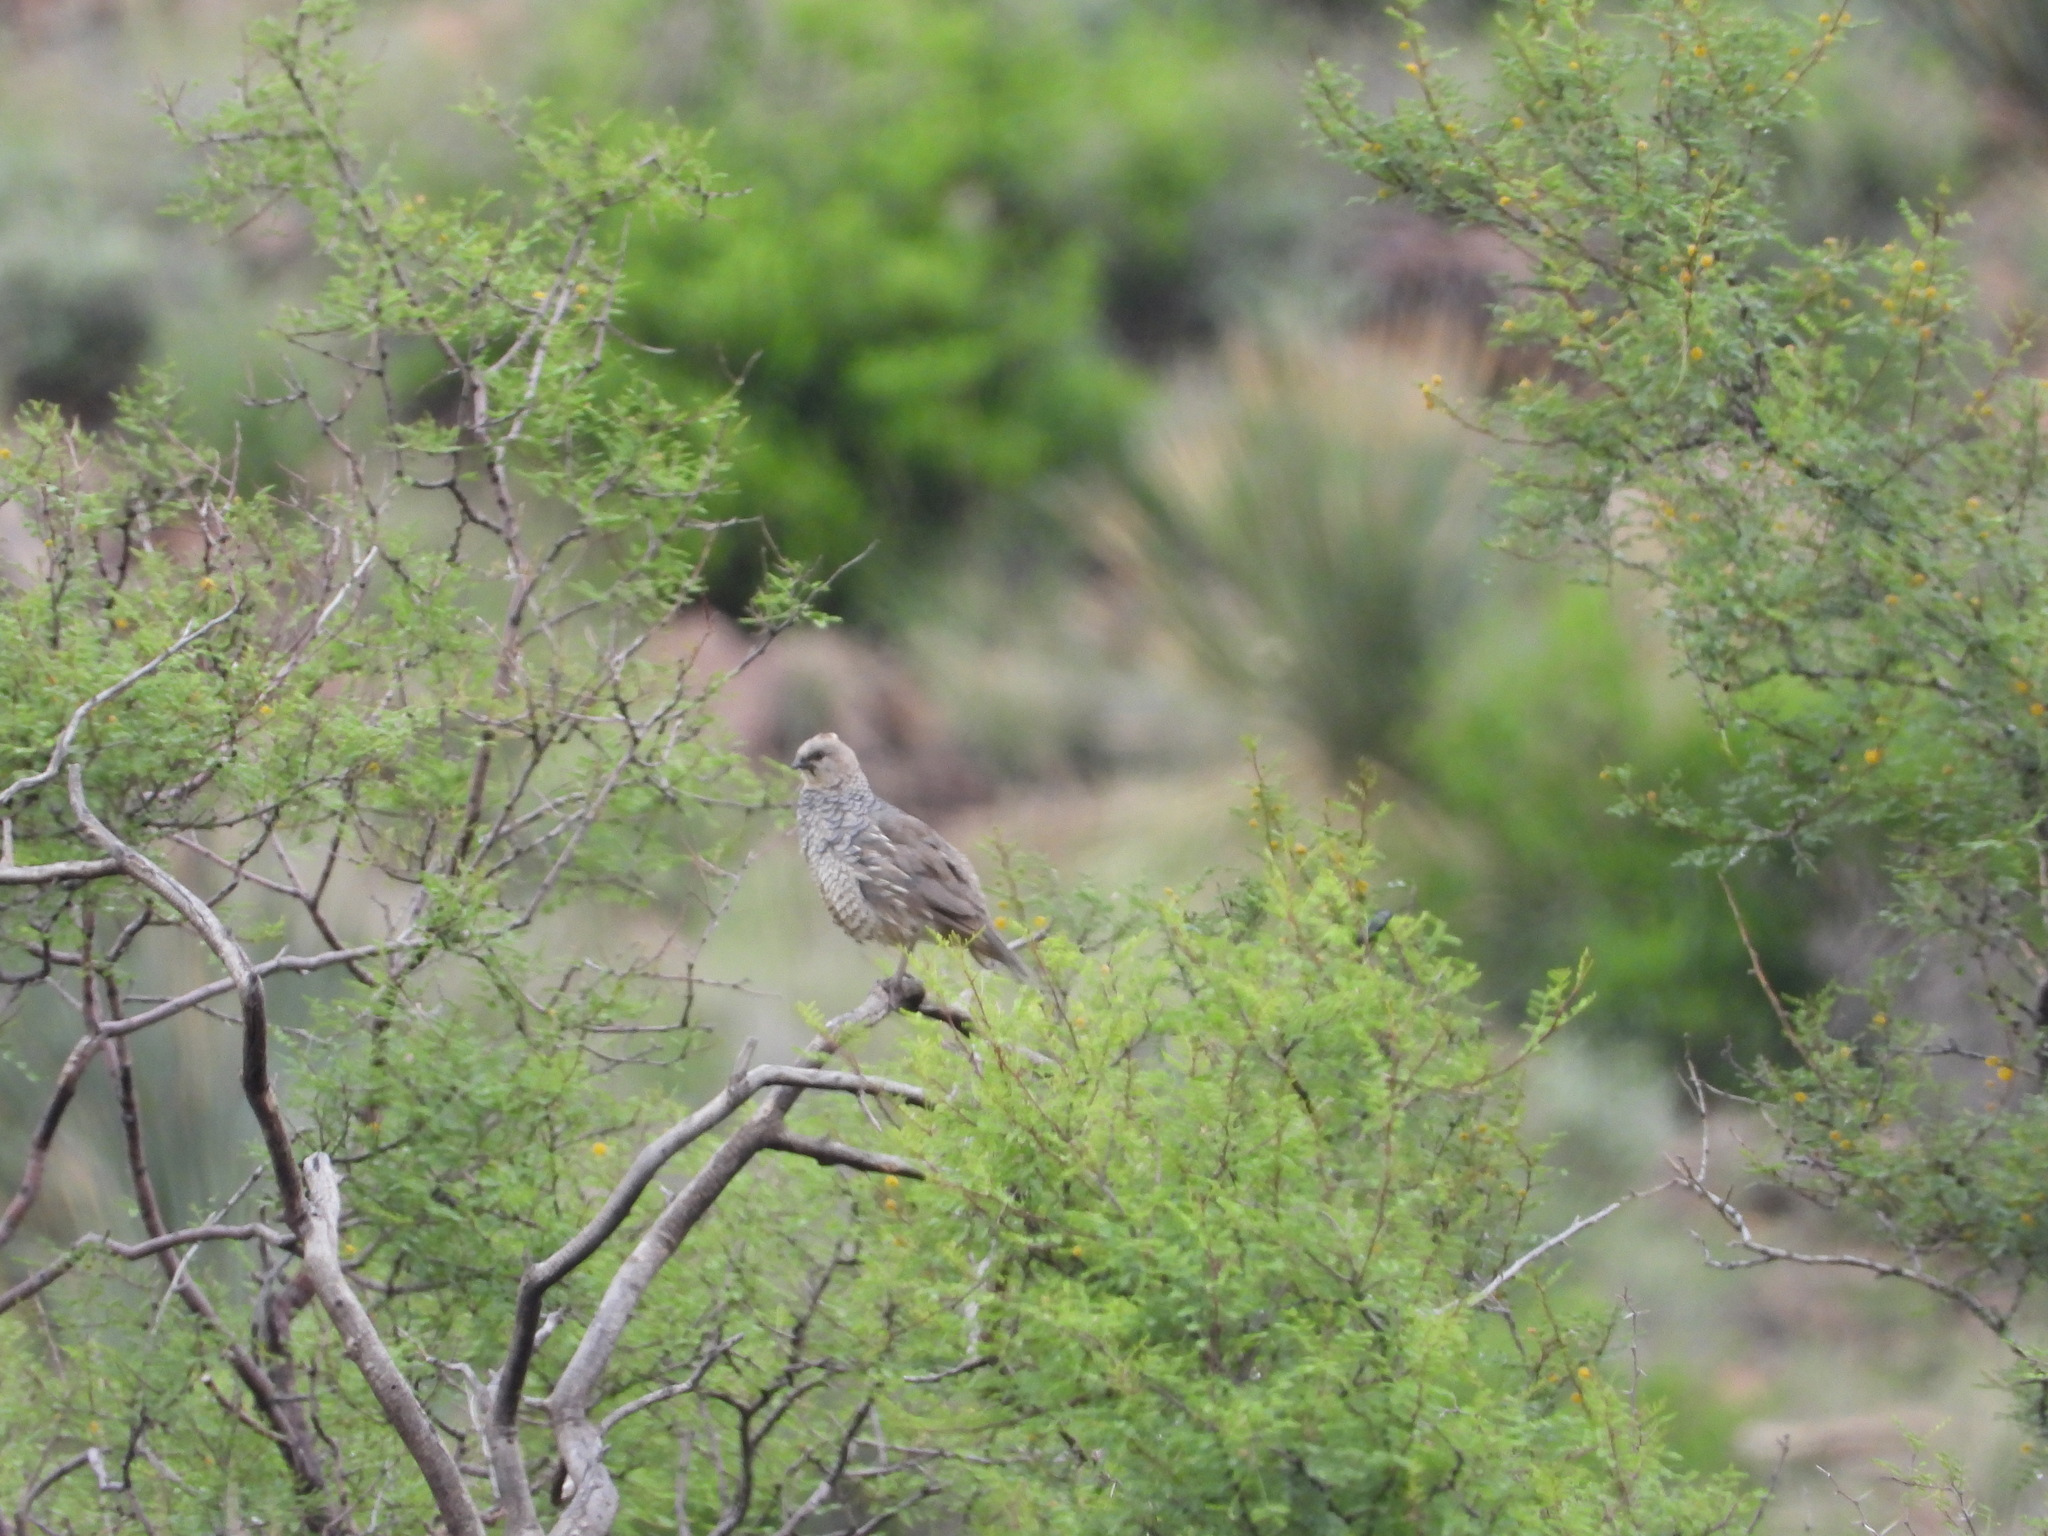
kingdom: Animalia
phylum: Chordata
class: Aves
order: Galliformes
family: Odontophoridae
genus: Callipepla
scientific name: Callipepla squamata
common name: Scaled quail
